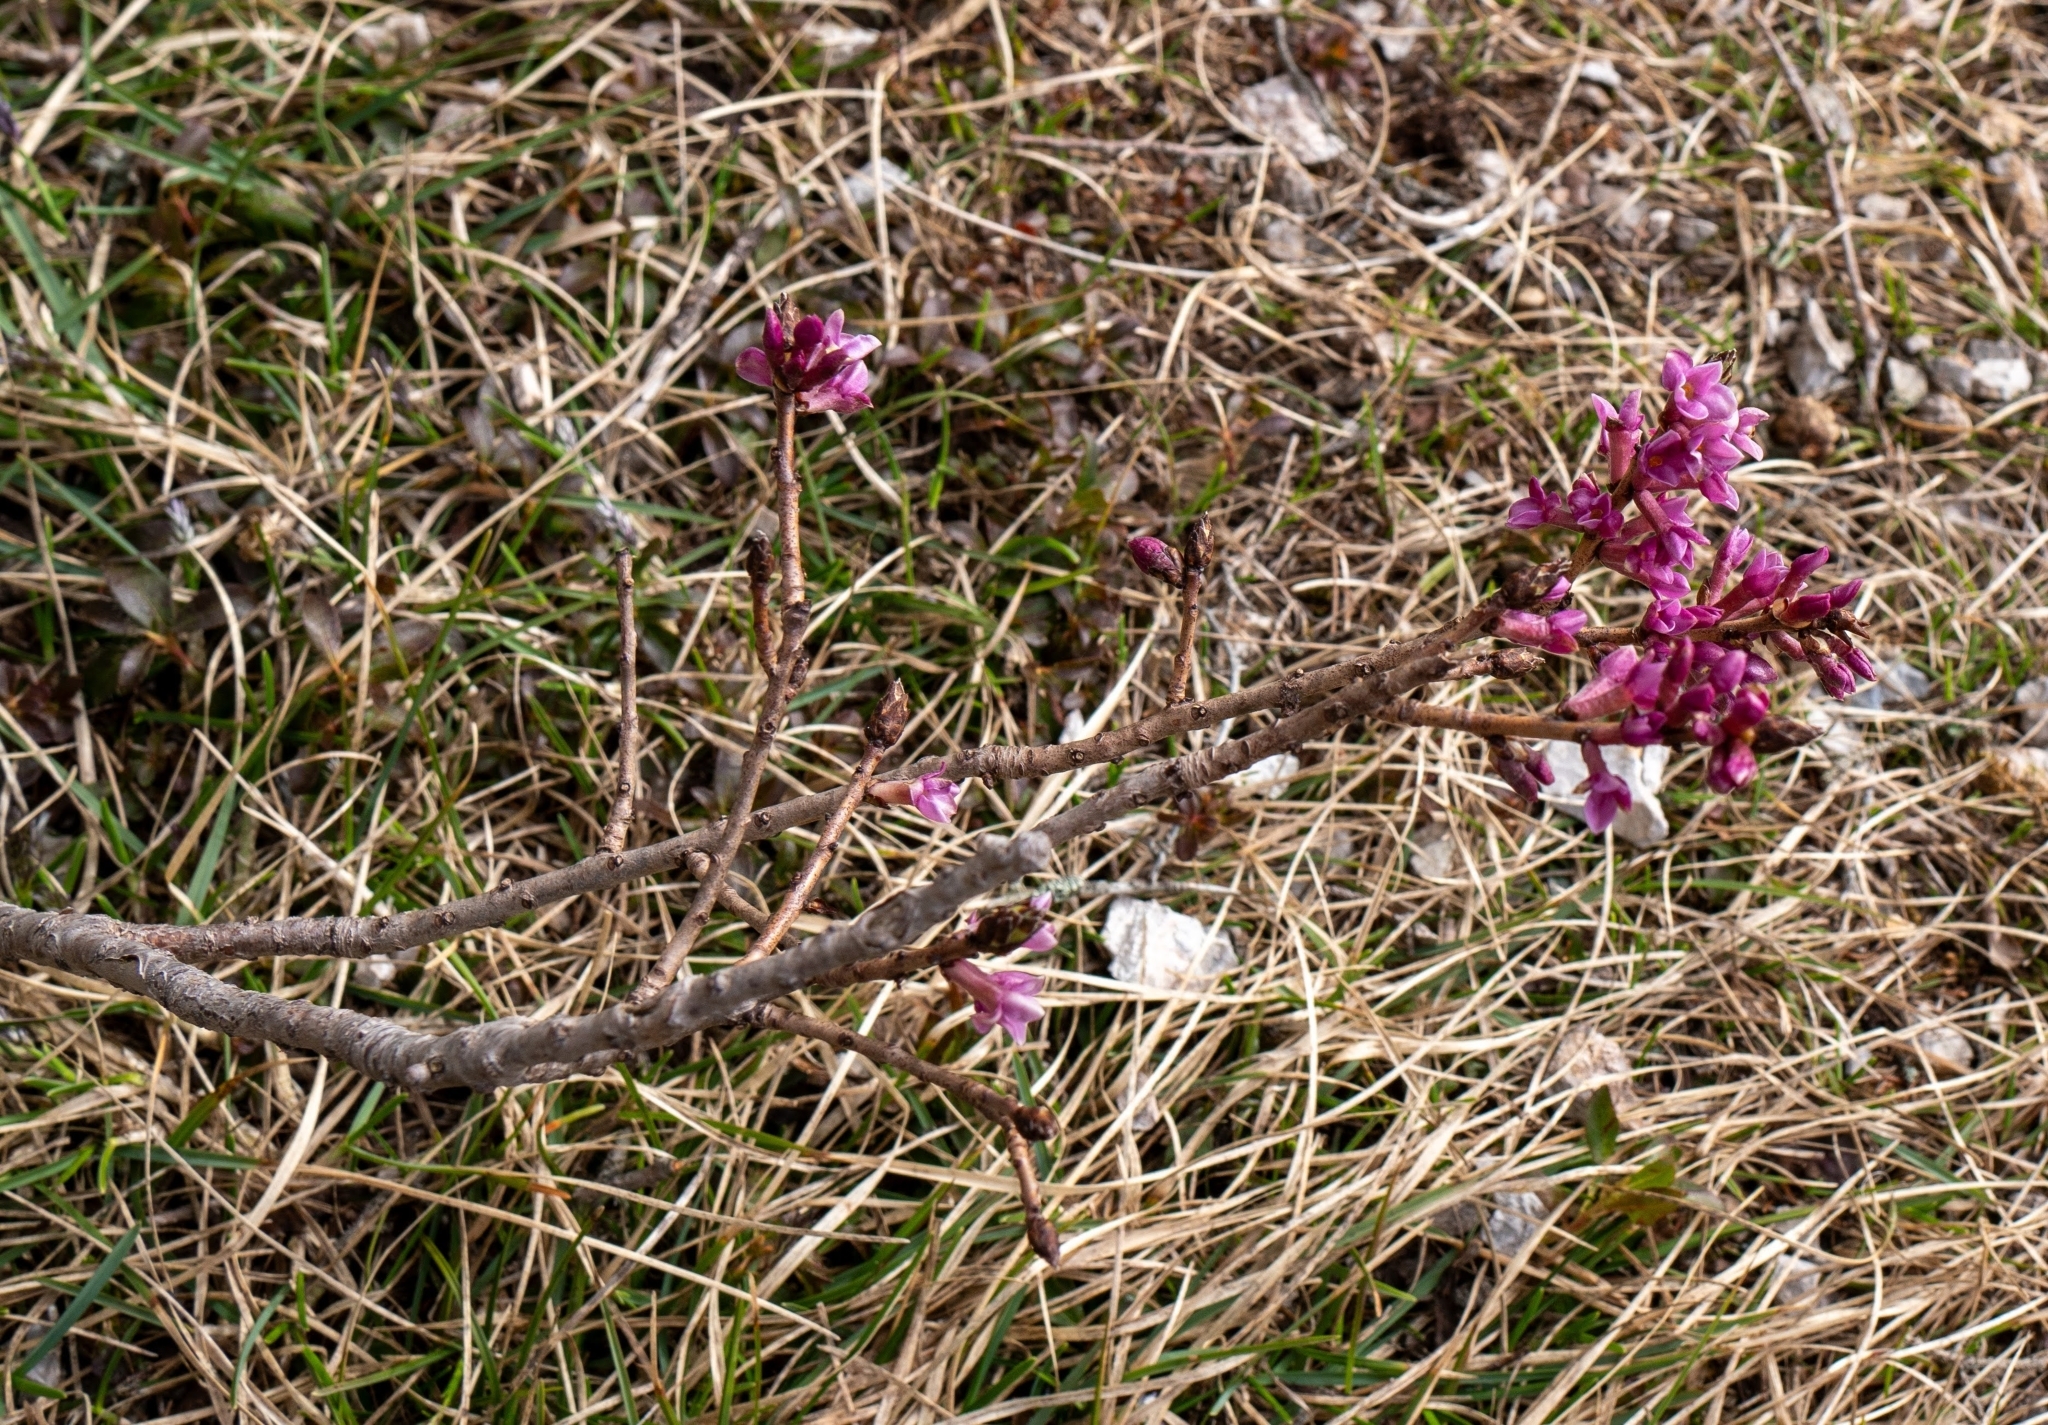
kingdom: Plantae
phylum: Tracheophyta
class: Magnoliopsida
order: Malvales
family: Thymelaeaceae
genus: Daphne
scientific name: Daphne mezereum
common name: Mezereon
